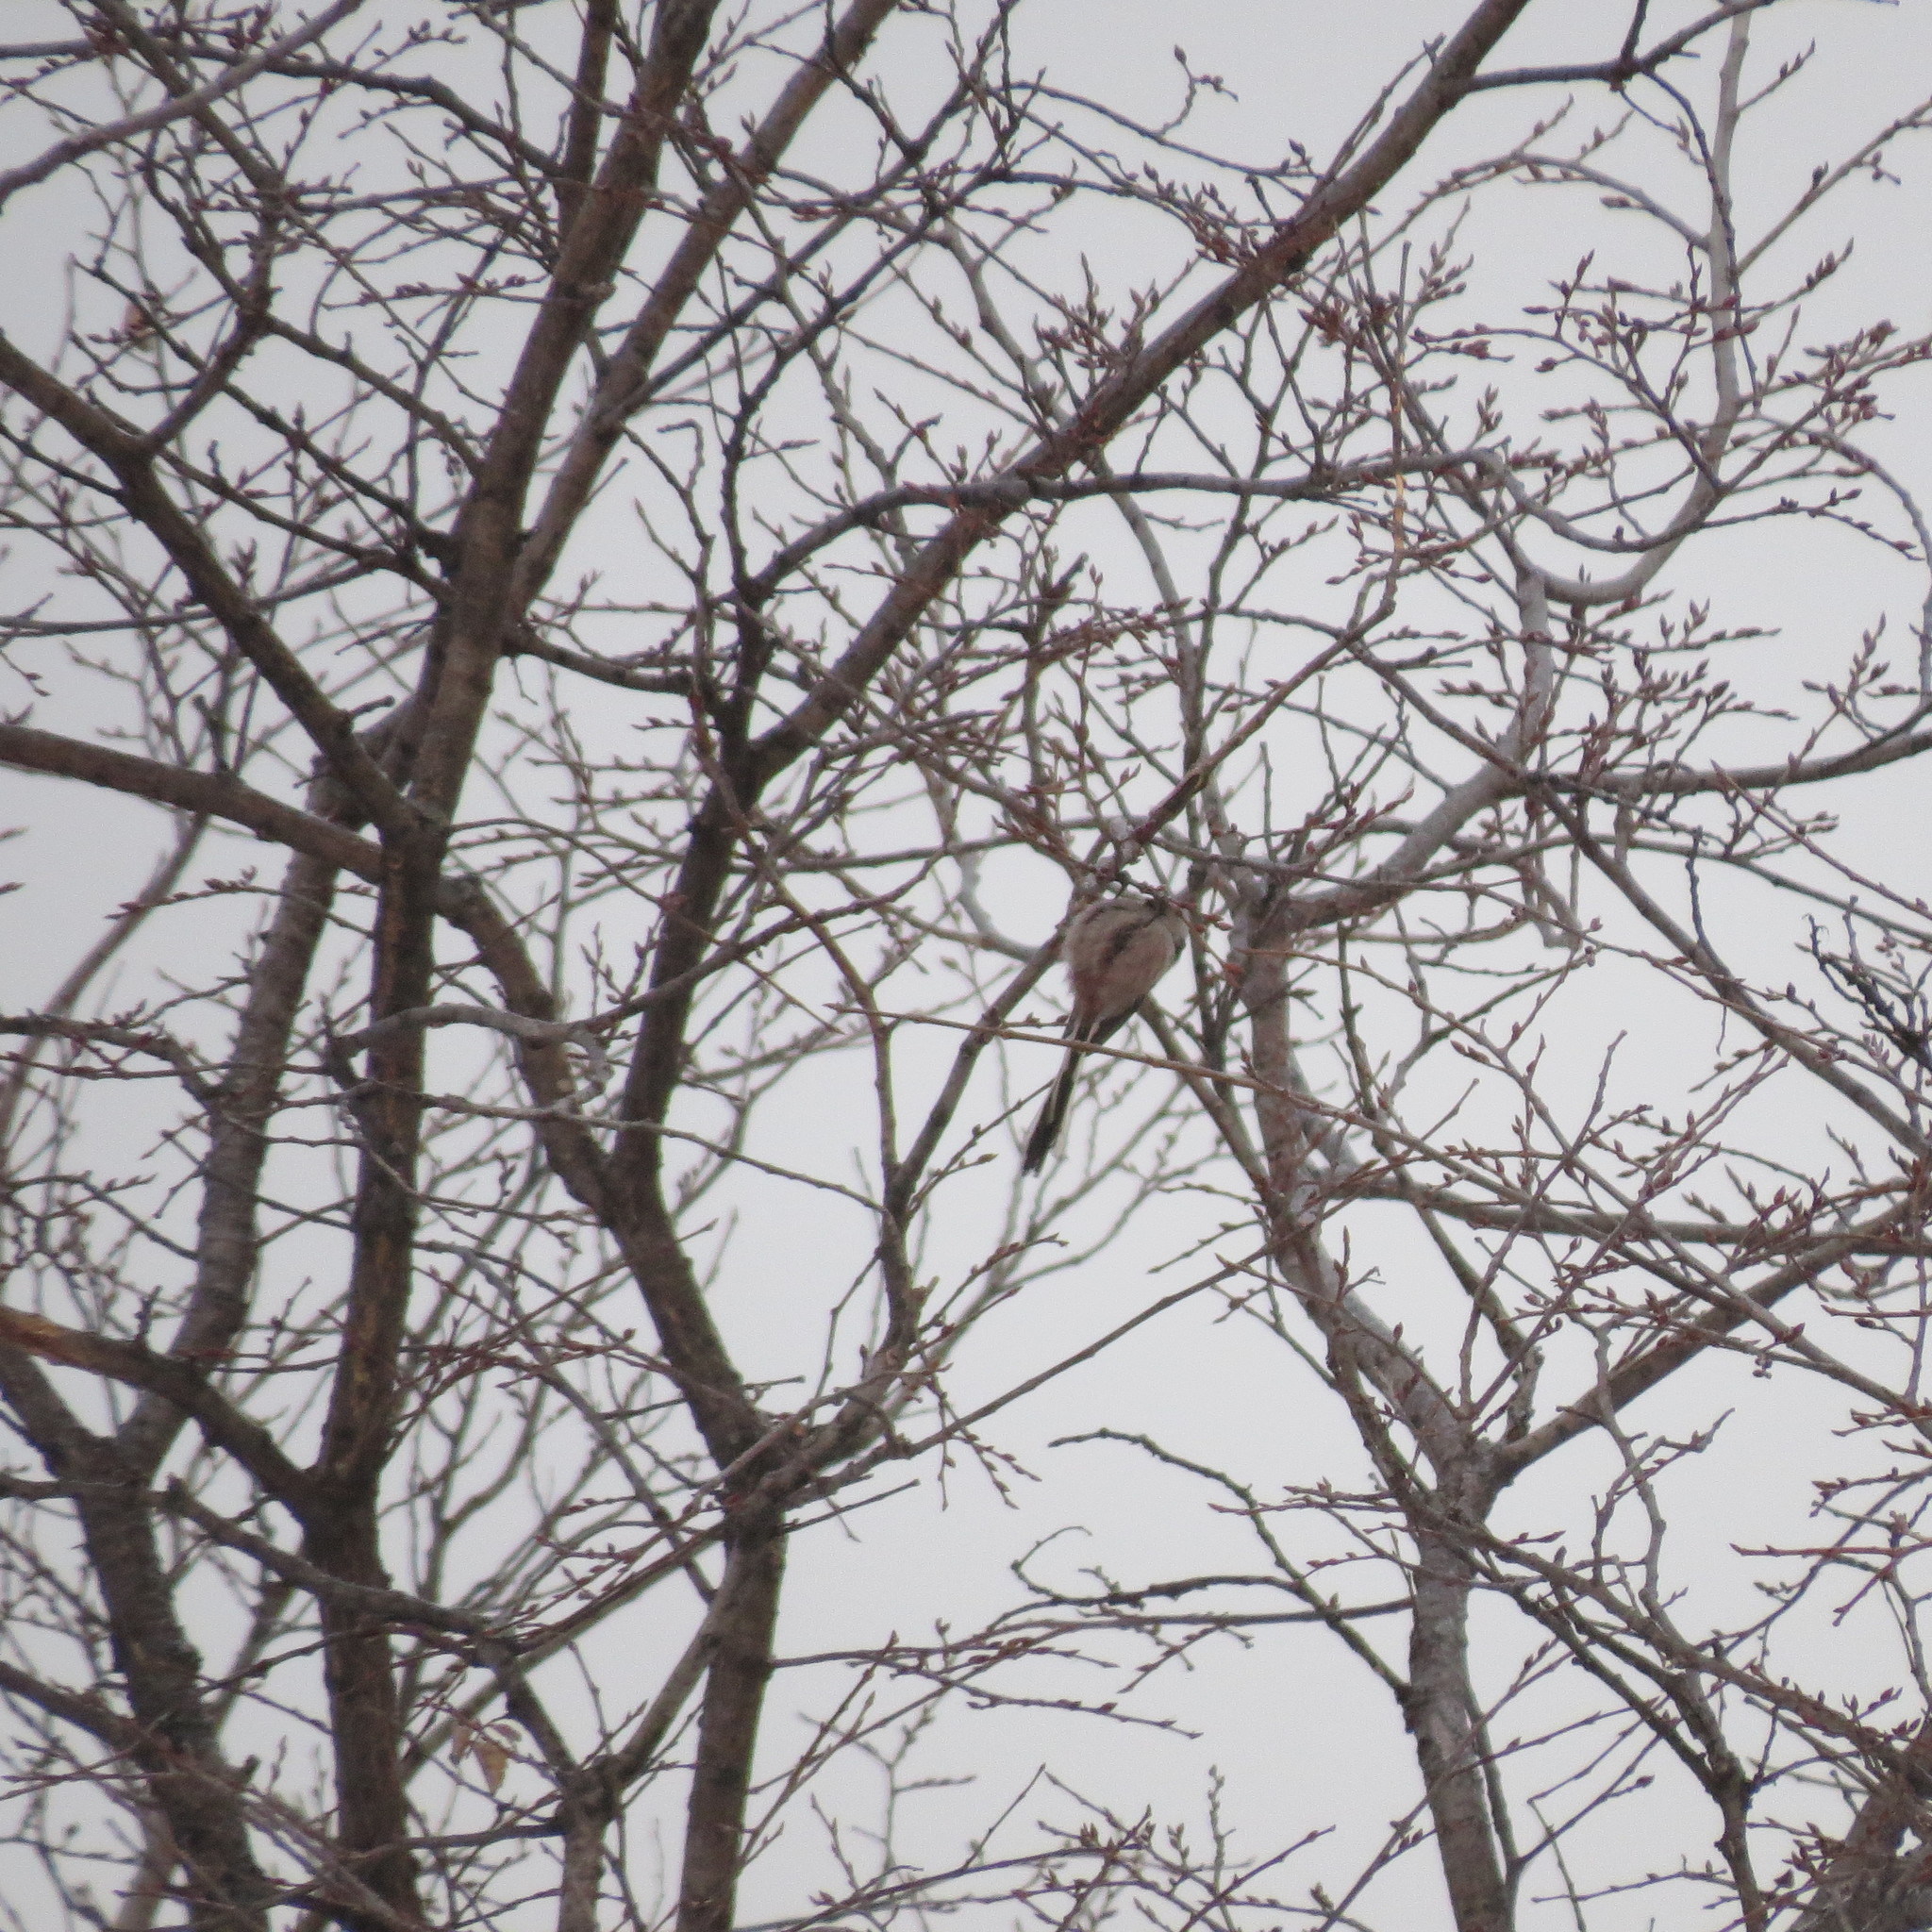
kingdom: Animalia
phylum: Chordata
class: Aves
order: Passeriformes
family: Aegithalidae
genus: Aegithalos
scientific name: Aegithalos caudatus
